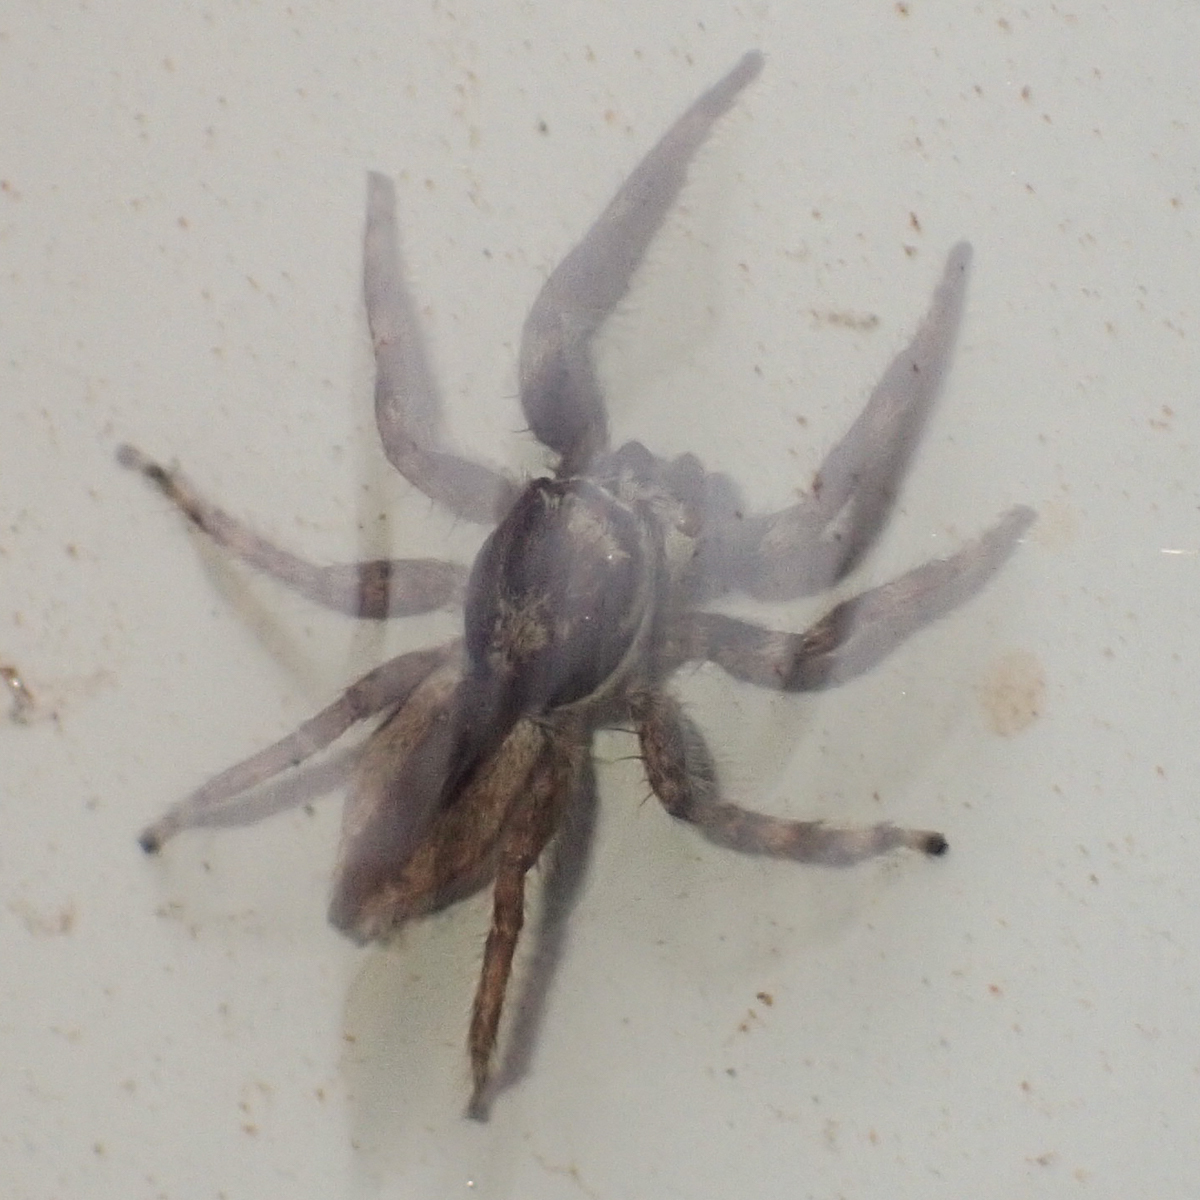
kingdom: Animalia
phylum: Arthropoda
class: Arachnida
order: Araneae
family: Salticidae
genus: Menemerus
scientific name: Menemerus bivittatus
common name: Gray wall jumper
